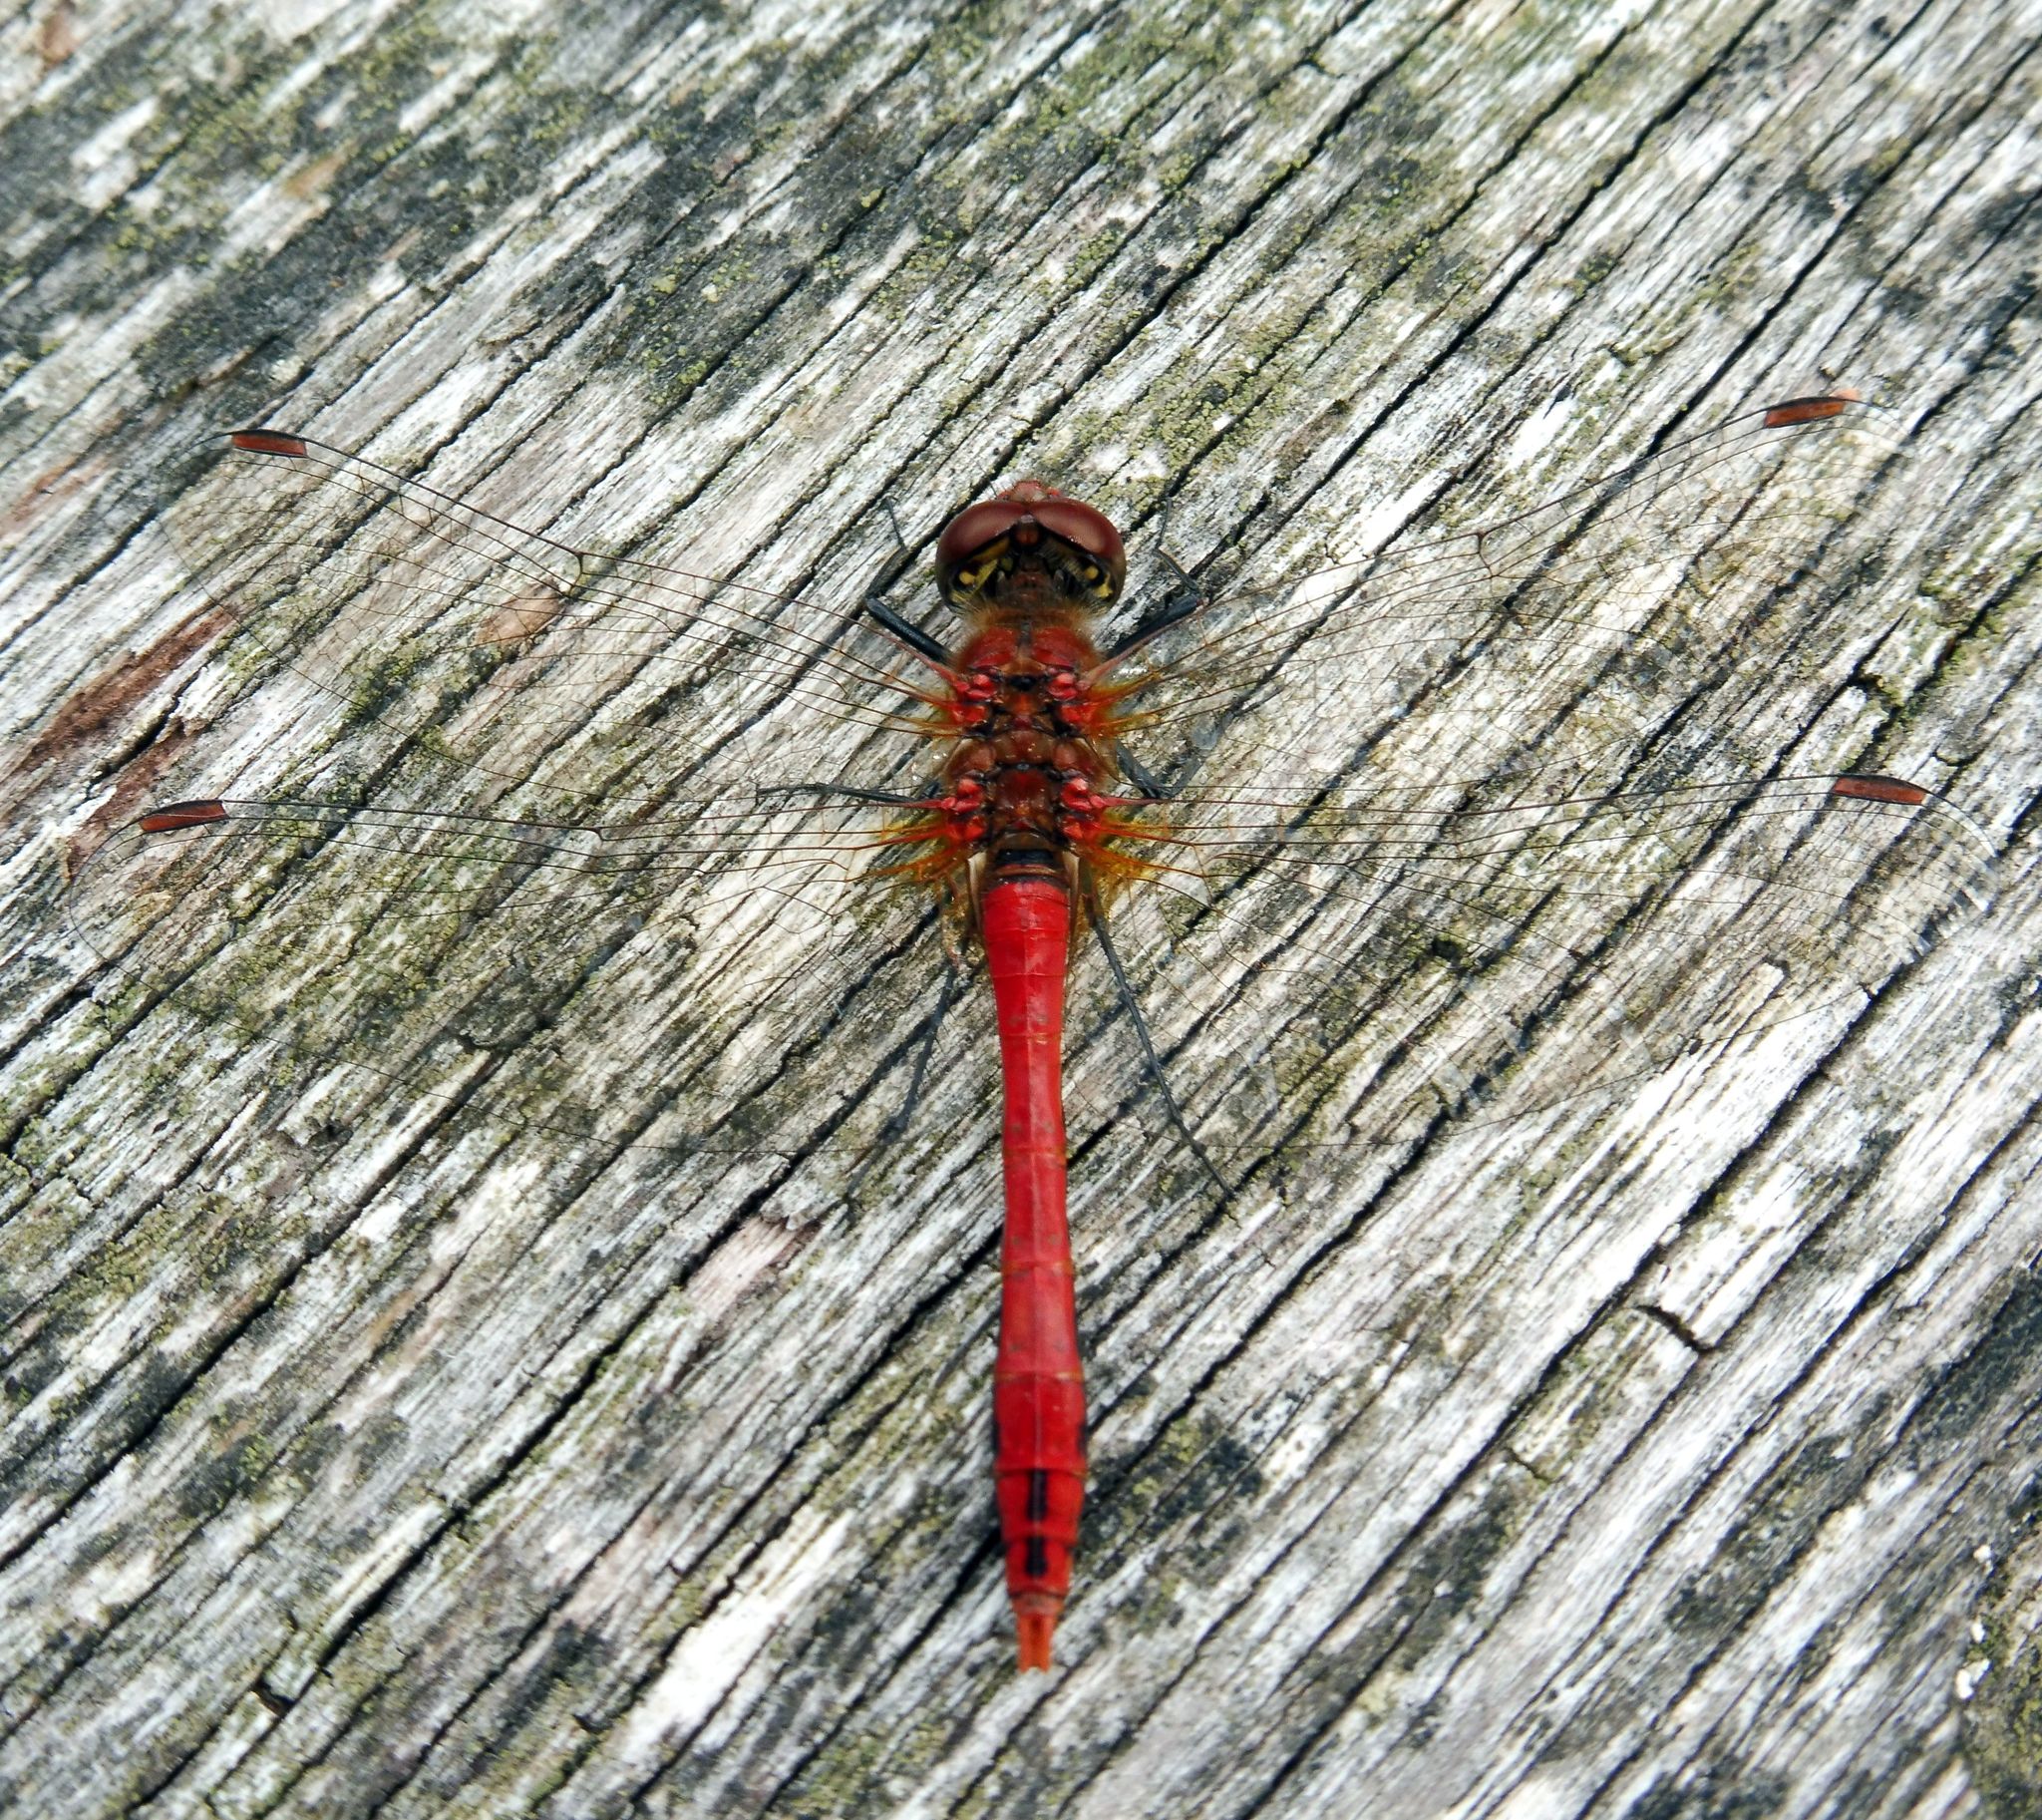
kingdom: Animalia
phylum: Arthropoda
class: Insecta
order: Odonata
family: Libellulidae
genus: Sympetrum
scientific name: Sympetrum sanguineum
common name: Ruddy darter
